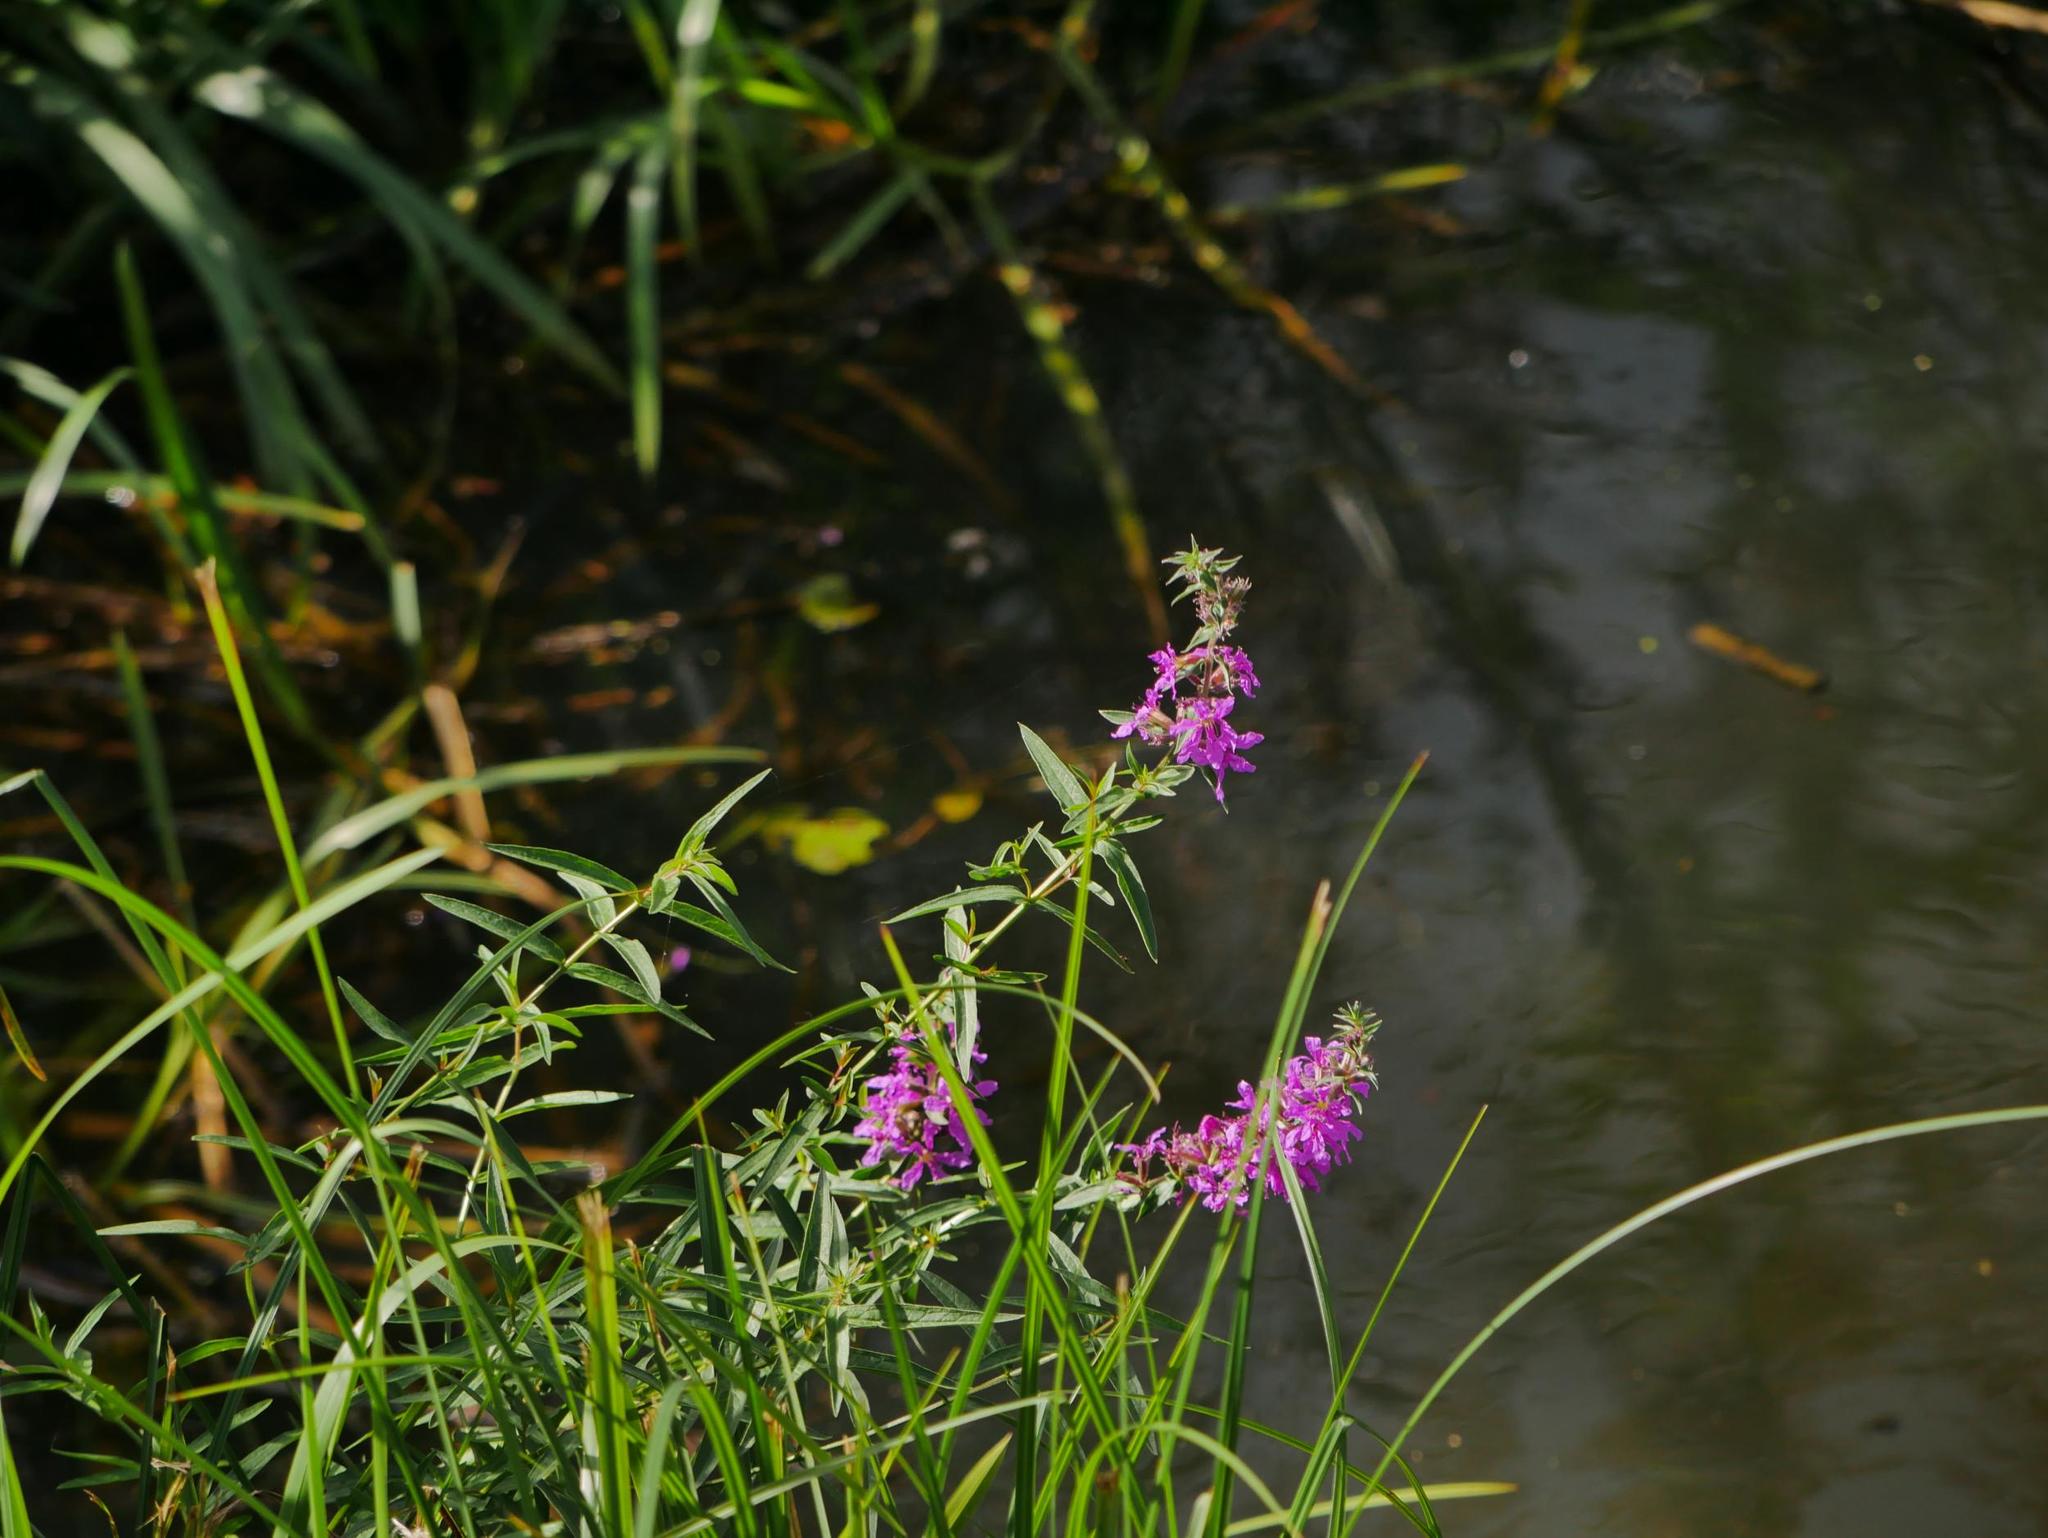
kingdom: Plantae
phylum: Tracheophyta
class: Magnoliopsida
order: Myrtales
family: Lythraceae
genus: Lythrum
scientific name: Lythrum salicaria
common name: Purple loosestrife
